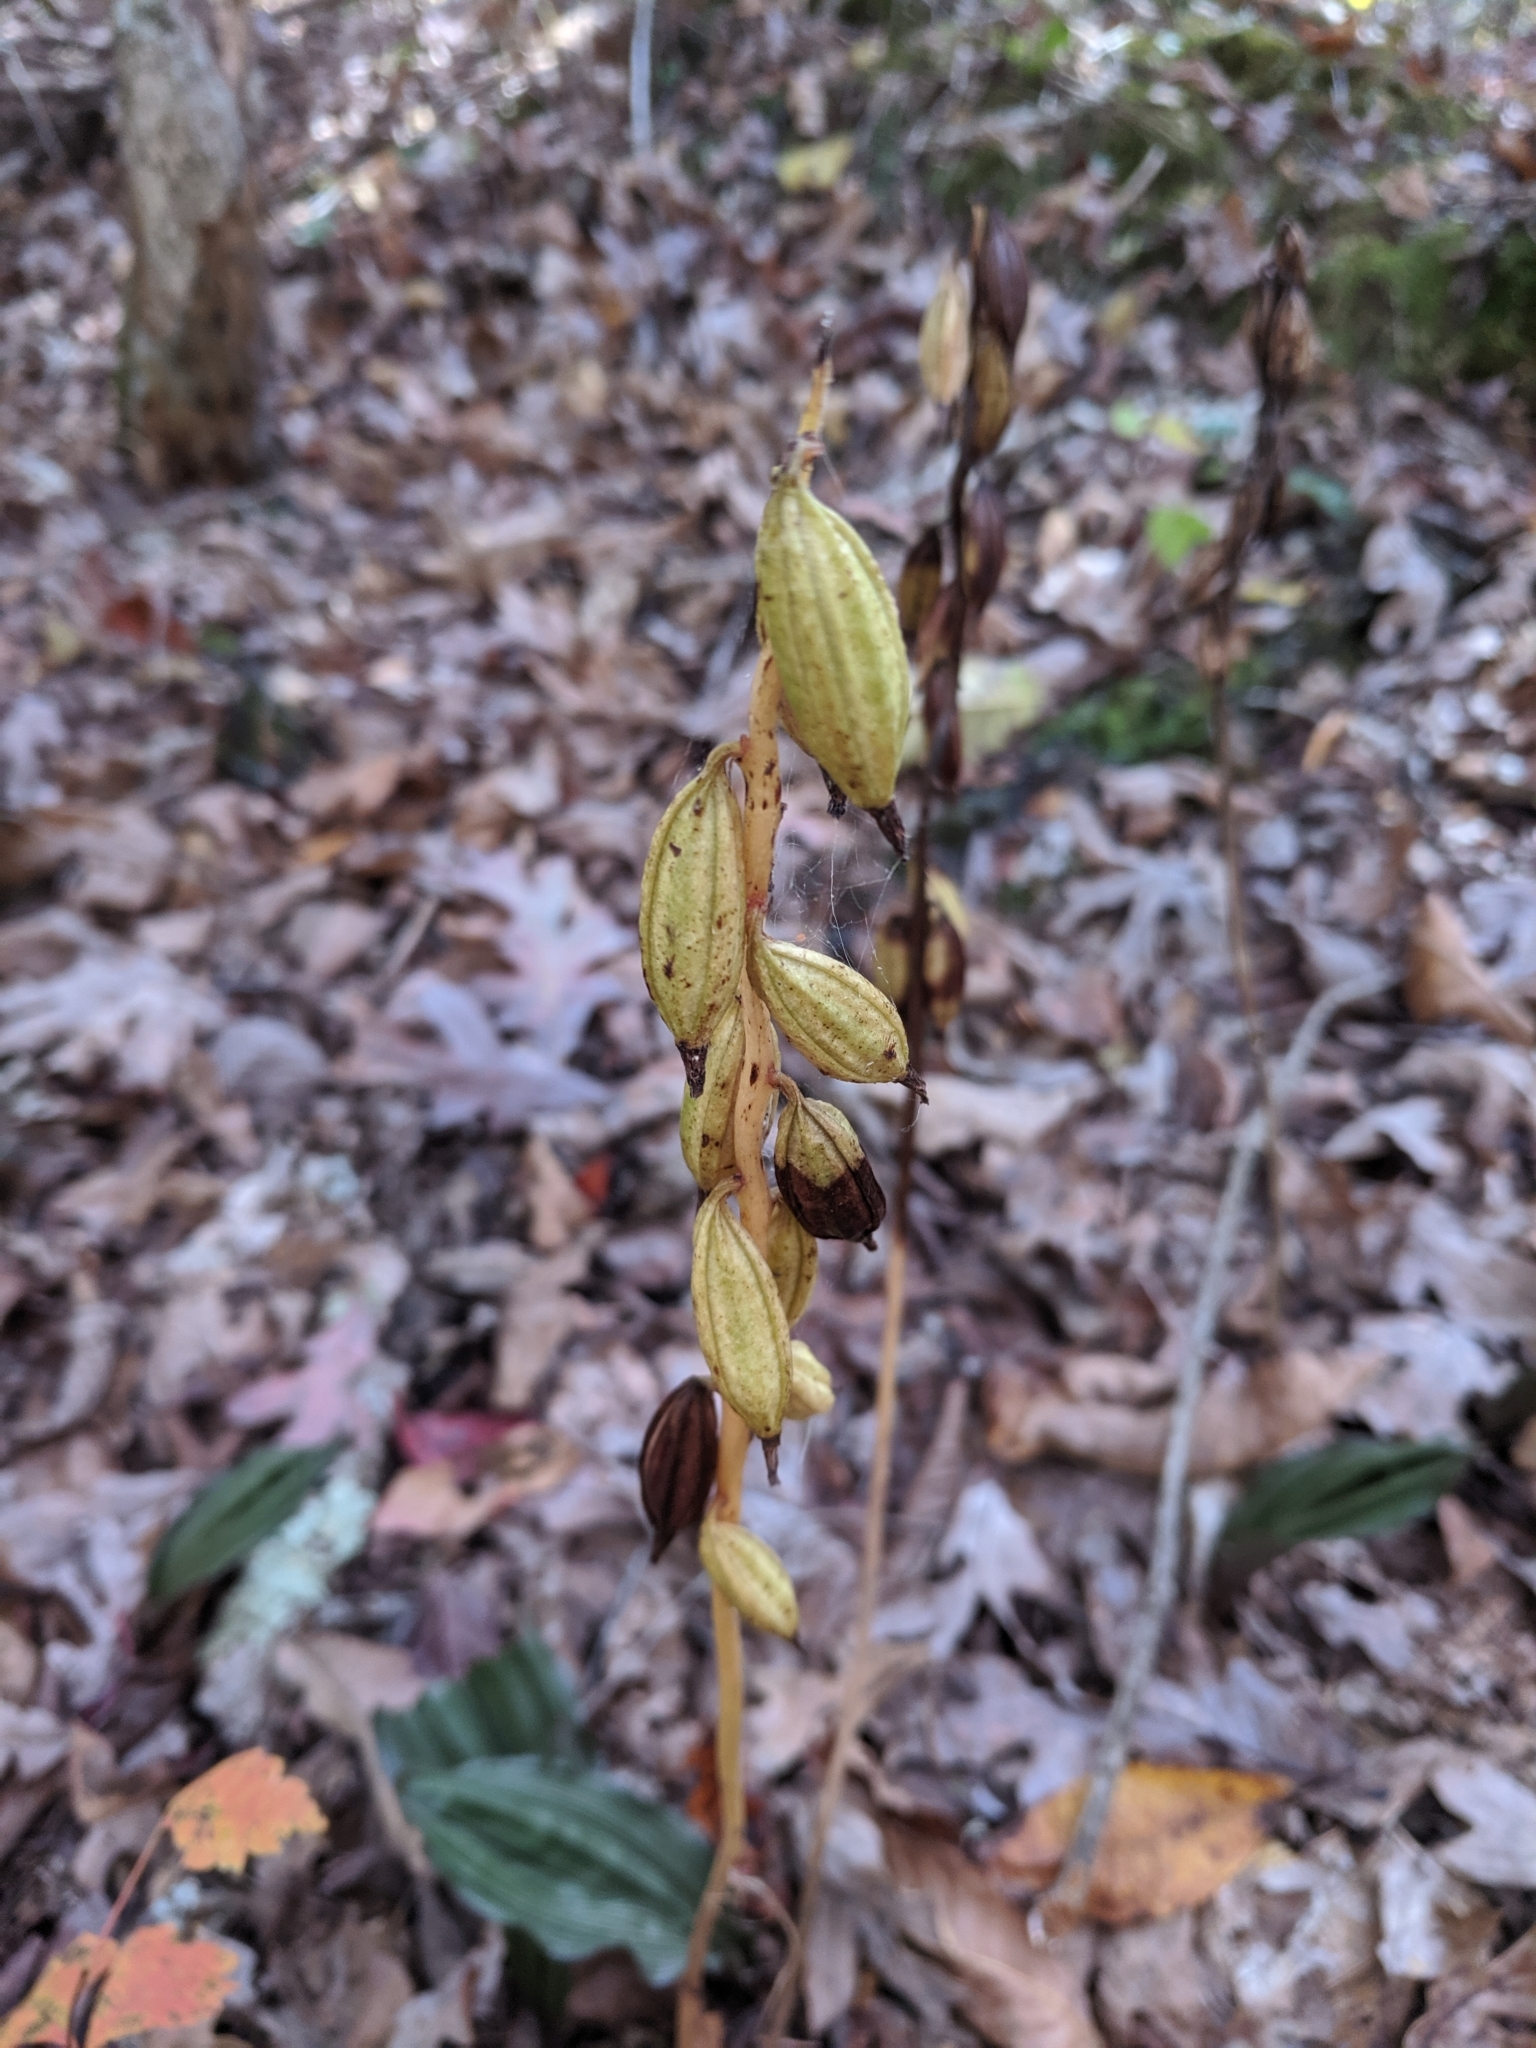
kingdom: Plantae
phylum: Tracheophyta
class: Liliopsida
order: Asparagales
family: Orchidaceae
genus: Aplectrum
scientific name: Aplectrum hyemale
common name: Adam-and-eve
